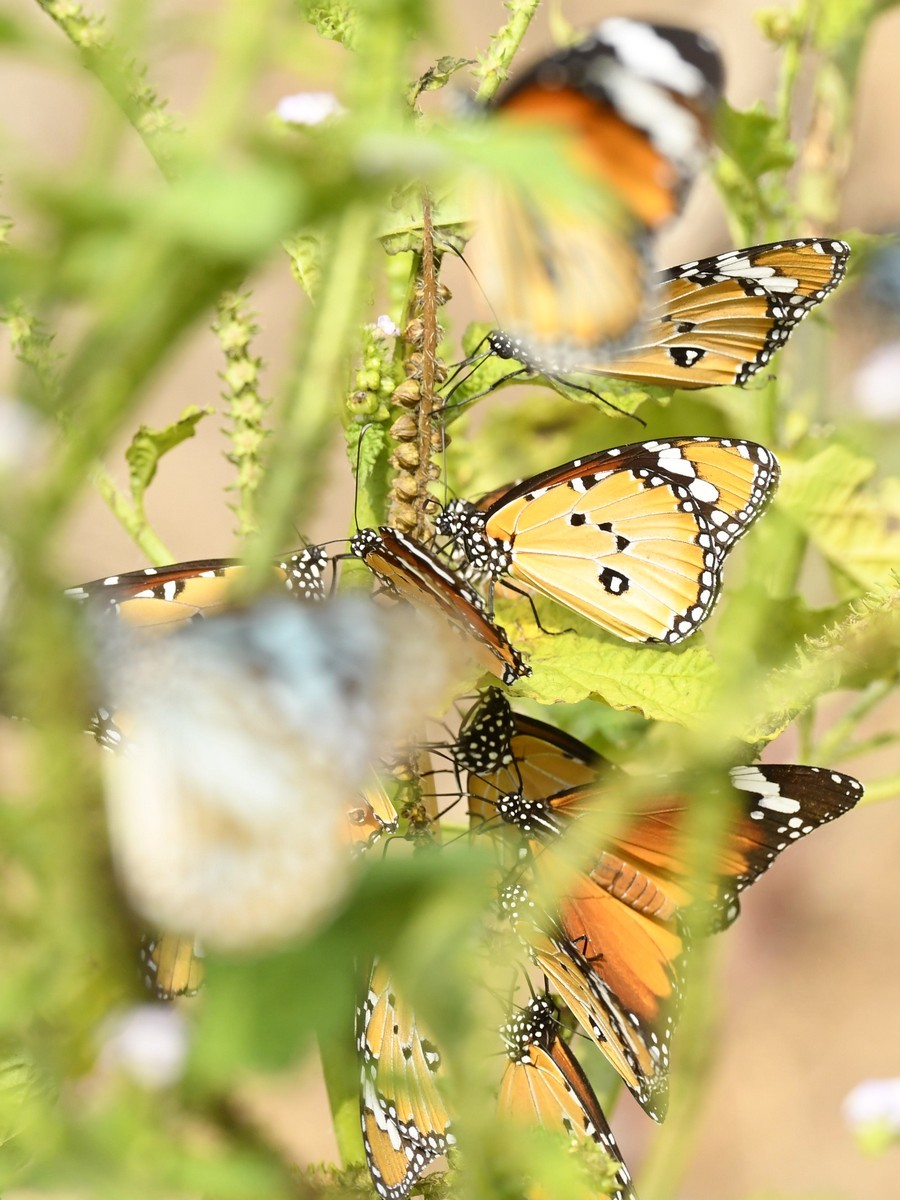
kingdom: Animalia
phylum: Arthropoda
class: Insecta
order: Lepidoptera
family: Nymphalidae
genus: Danaus
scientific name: Danaus chrysippus
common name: Plain tiger
